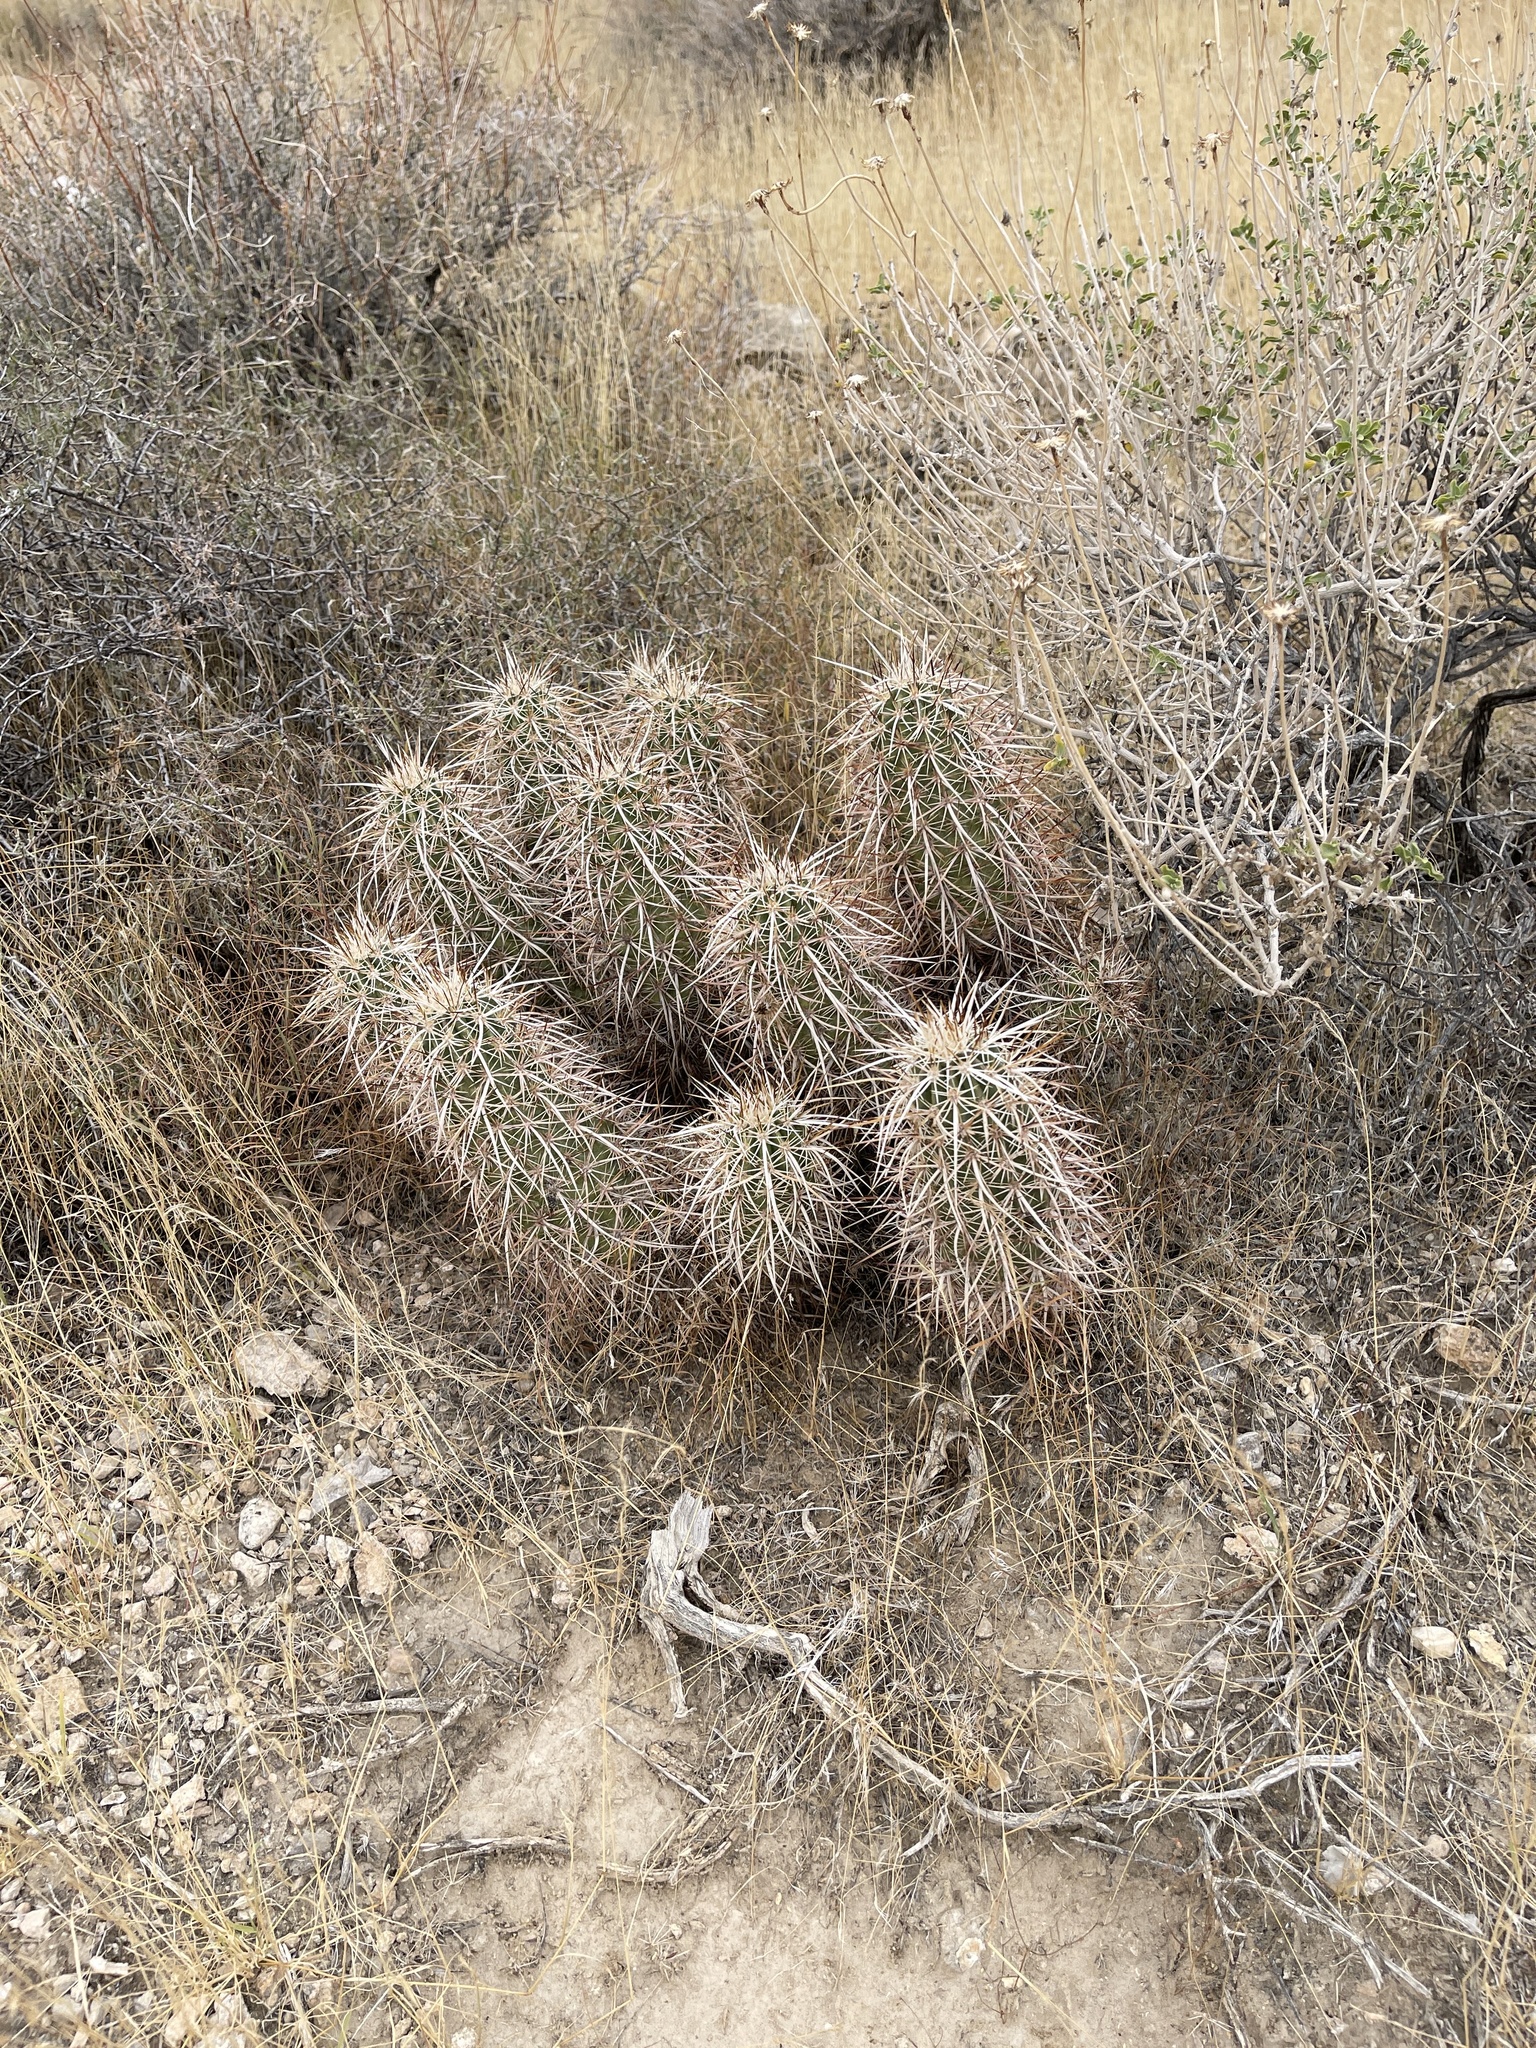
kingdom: Plantae
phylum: Tracheophyta
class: Magnoliopsida
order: Caryophyllales
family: Cactaceae
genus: Echinocereus
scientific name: Echinocereus engelmannii
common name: Engelmann's hedgehog cactus
